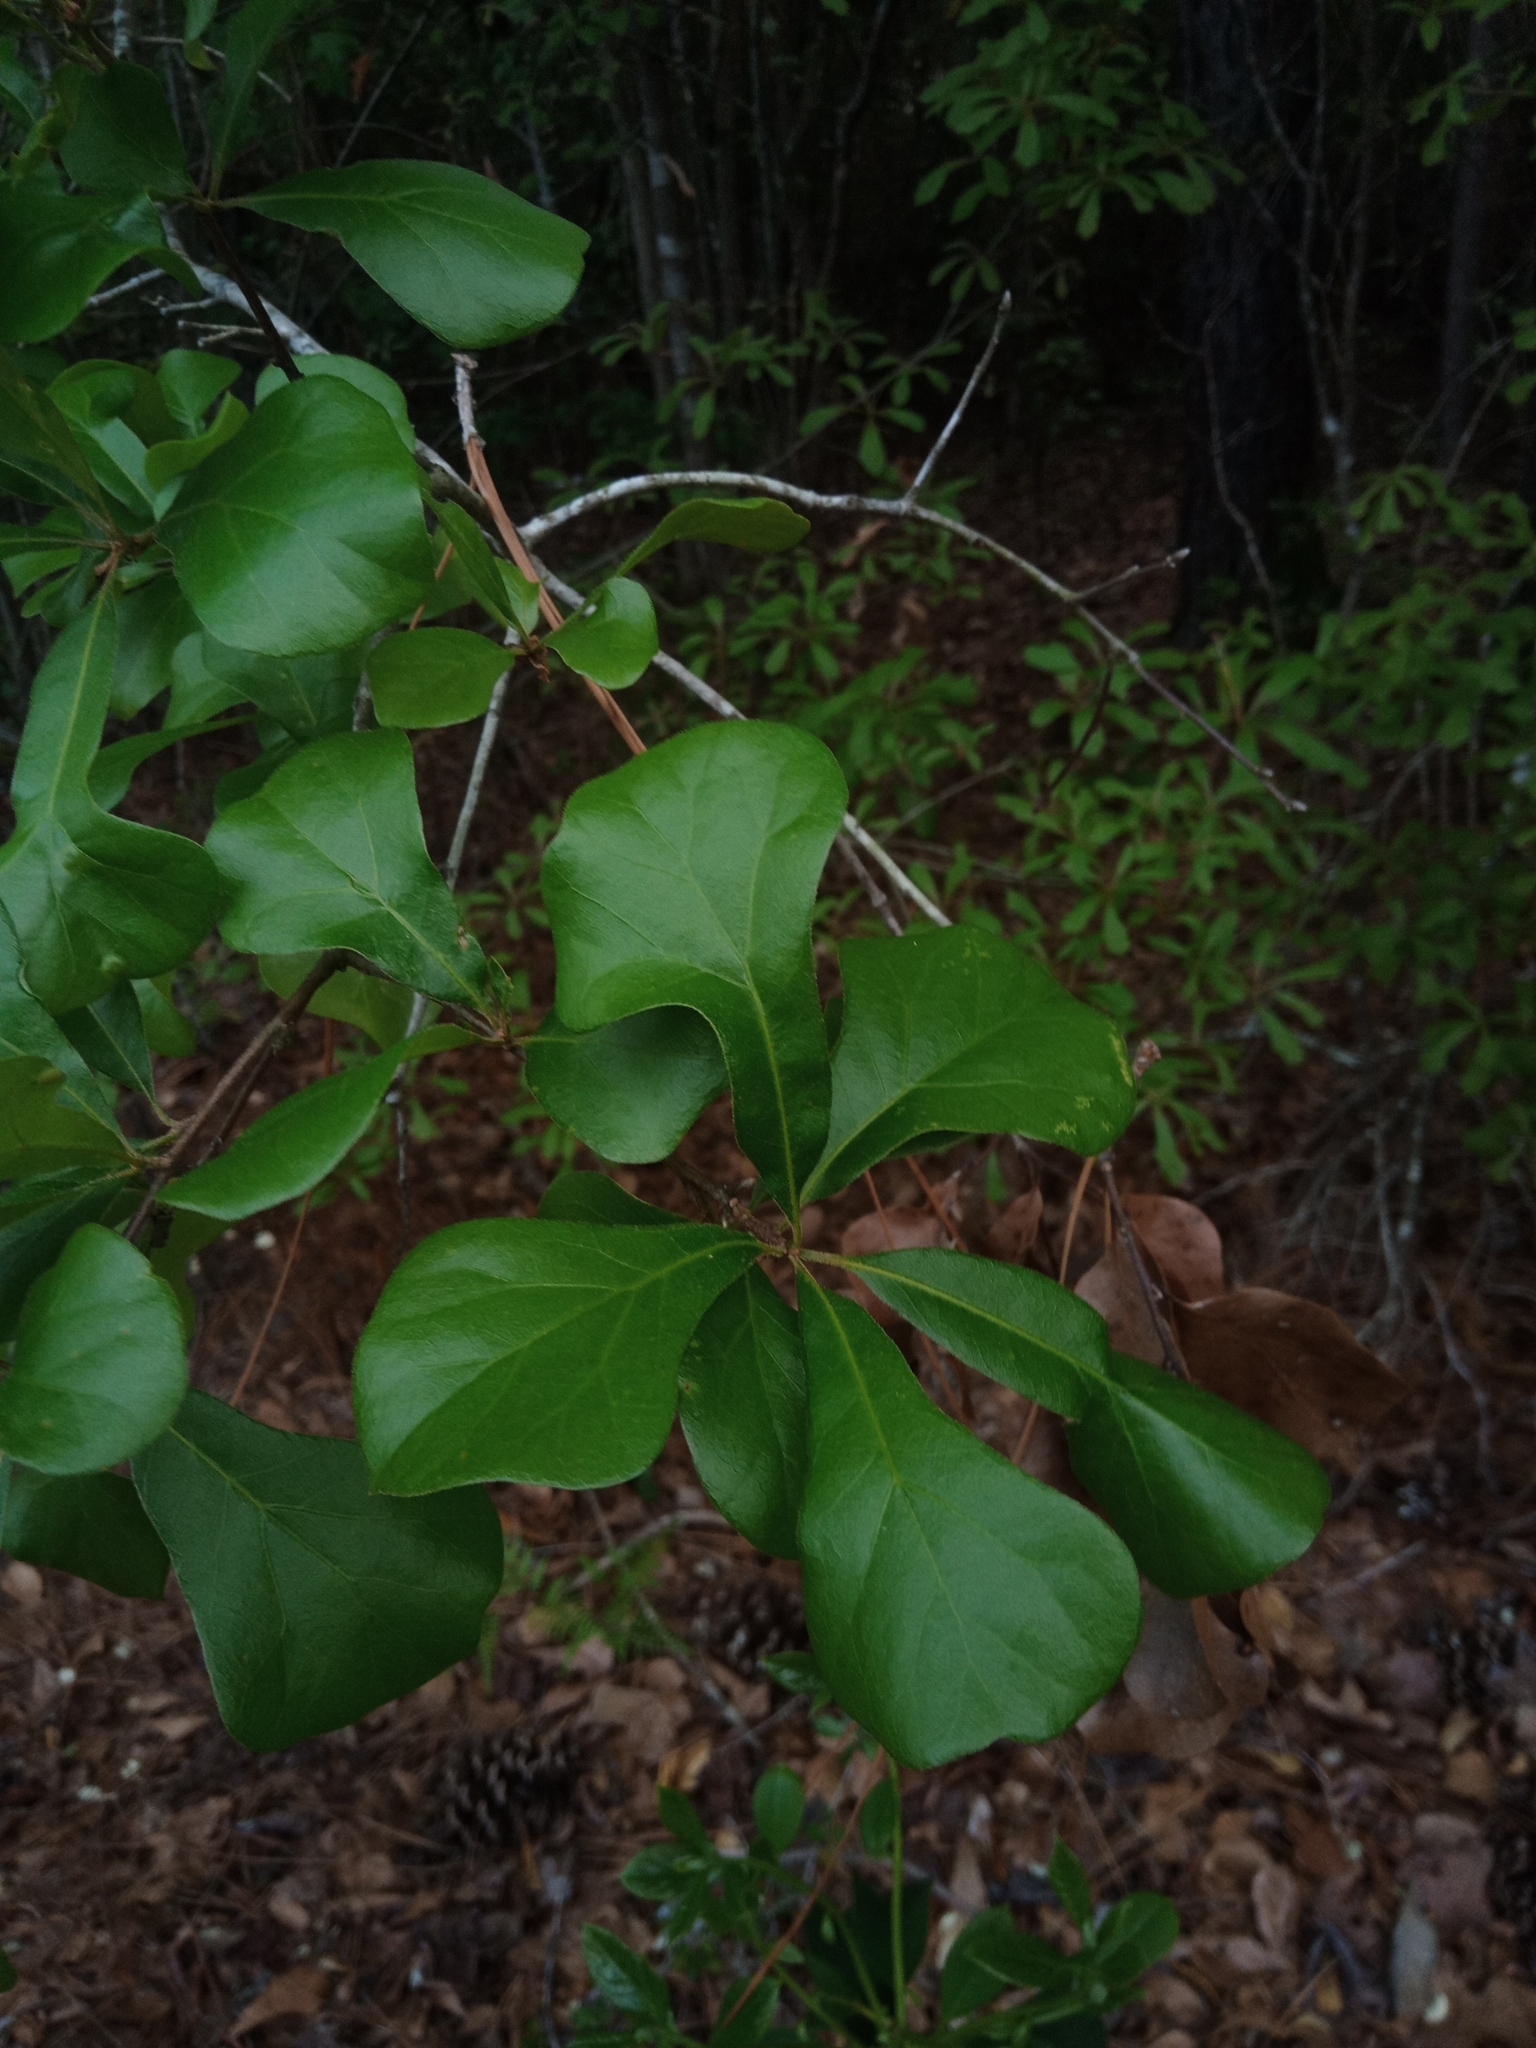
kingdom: Plantae
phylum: Tracheophyta
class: Magnoliopsida
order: Fagales
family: Fagaceae
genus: Quercus
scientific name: Quercus nigra
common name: Water oak
